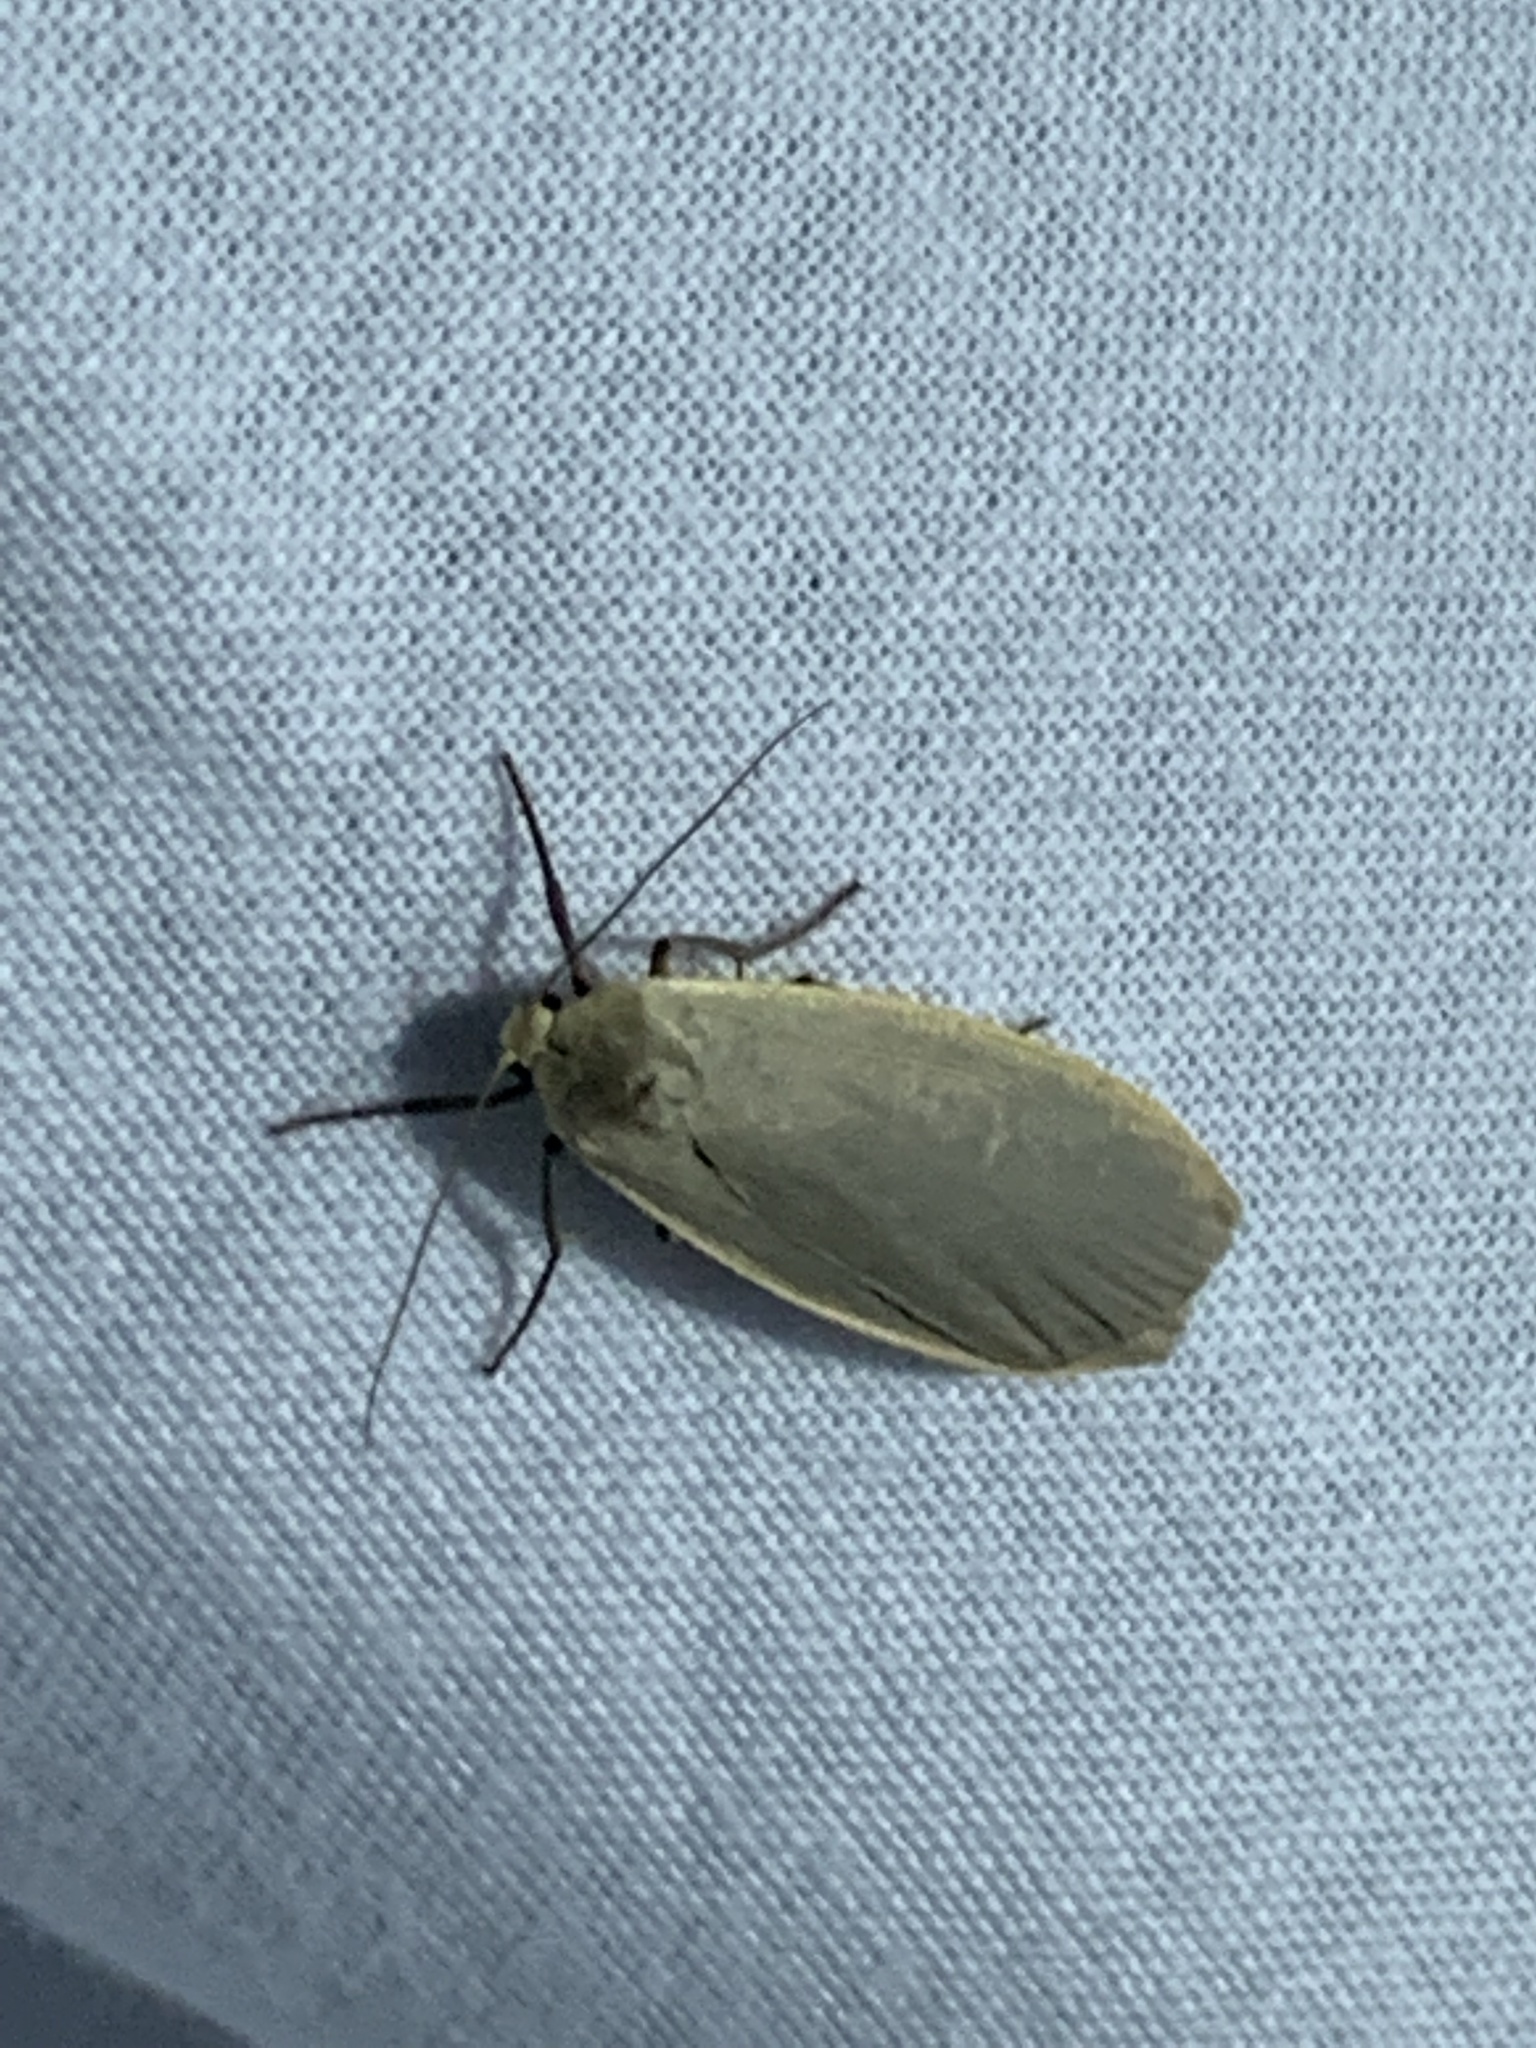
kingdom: Animalia
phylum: Arthropoda
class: Insecta
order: Lepidoptera
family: Erebidae
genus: Collita
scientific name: Collita griseola
